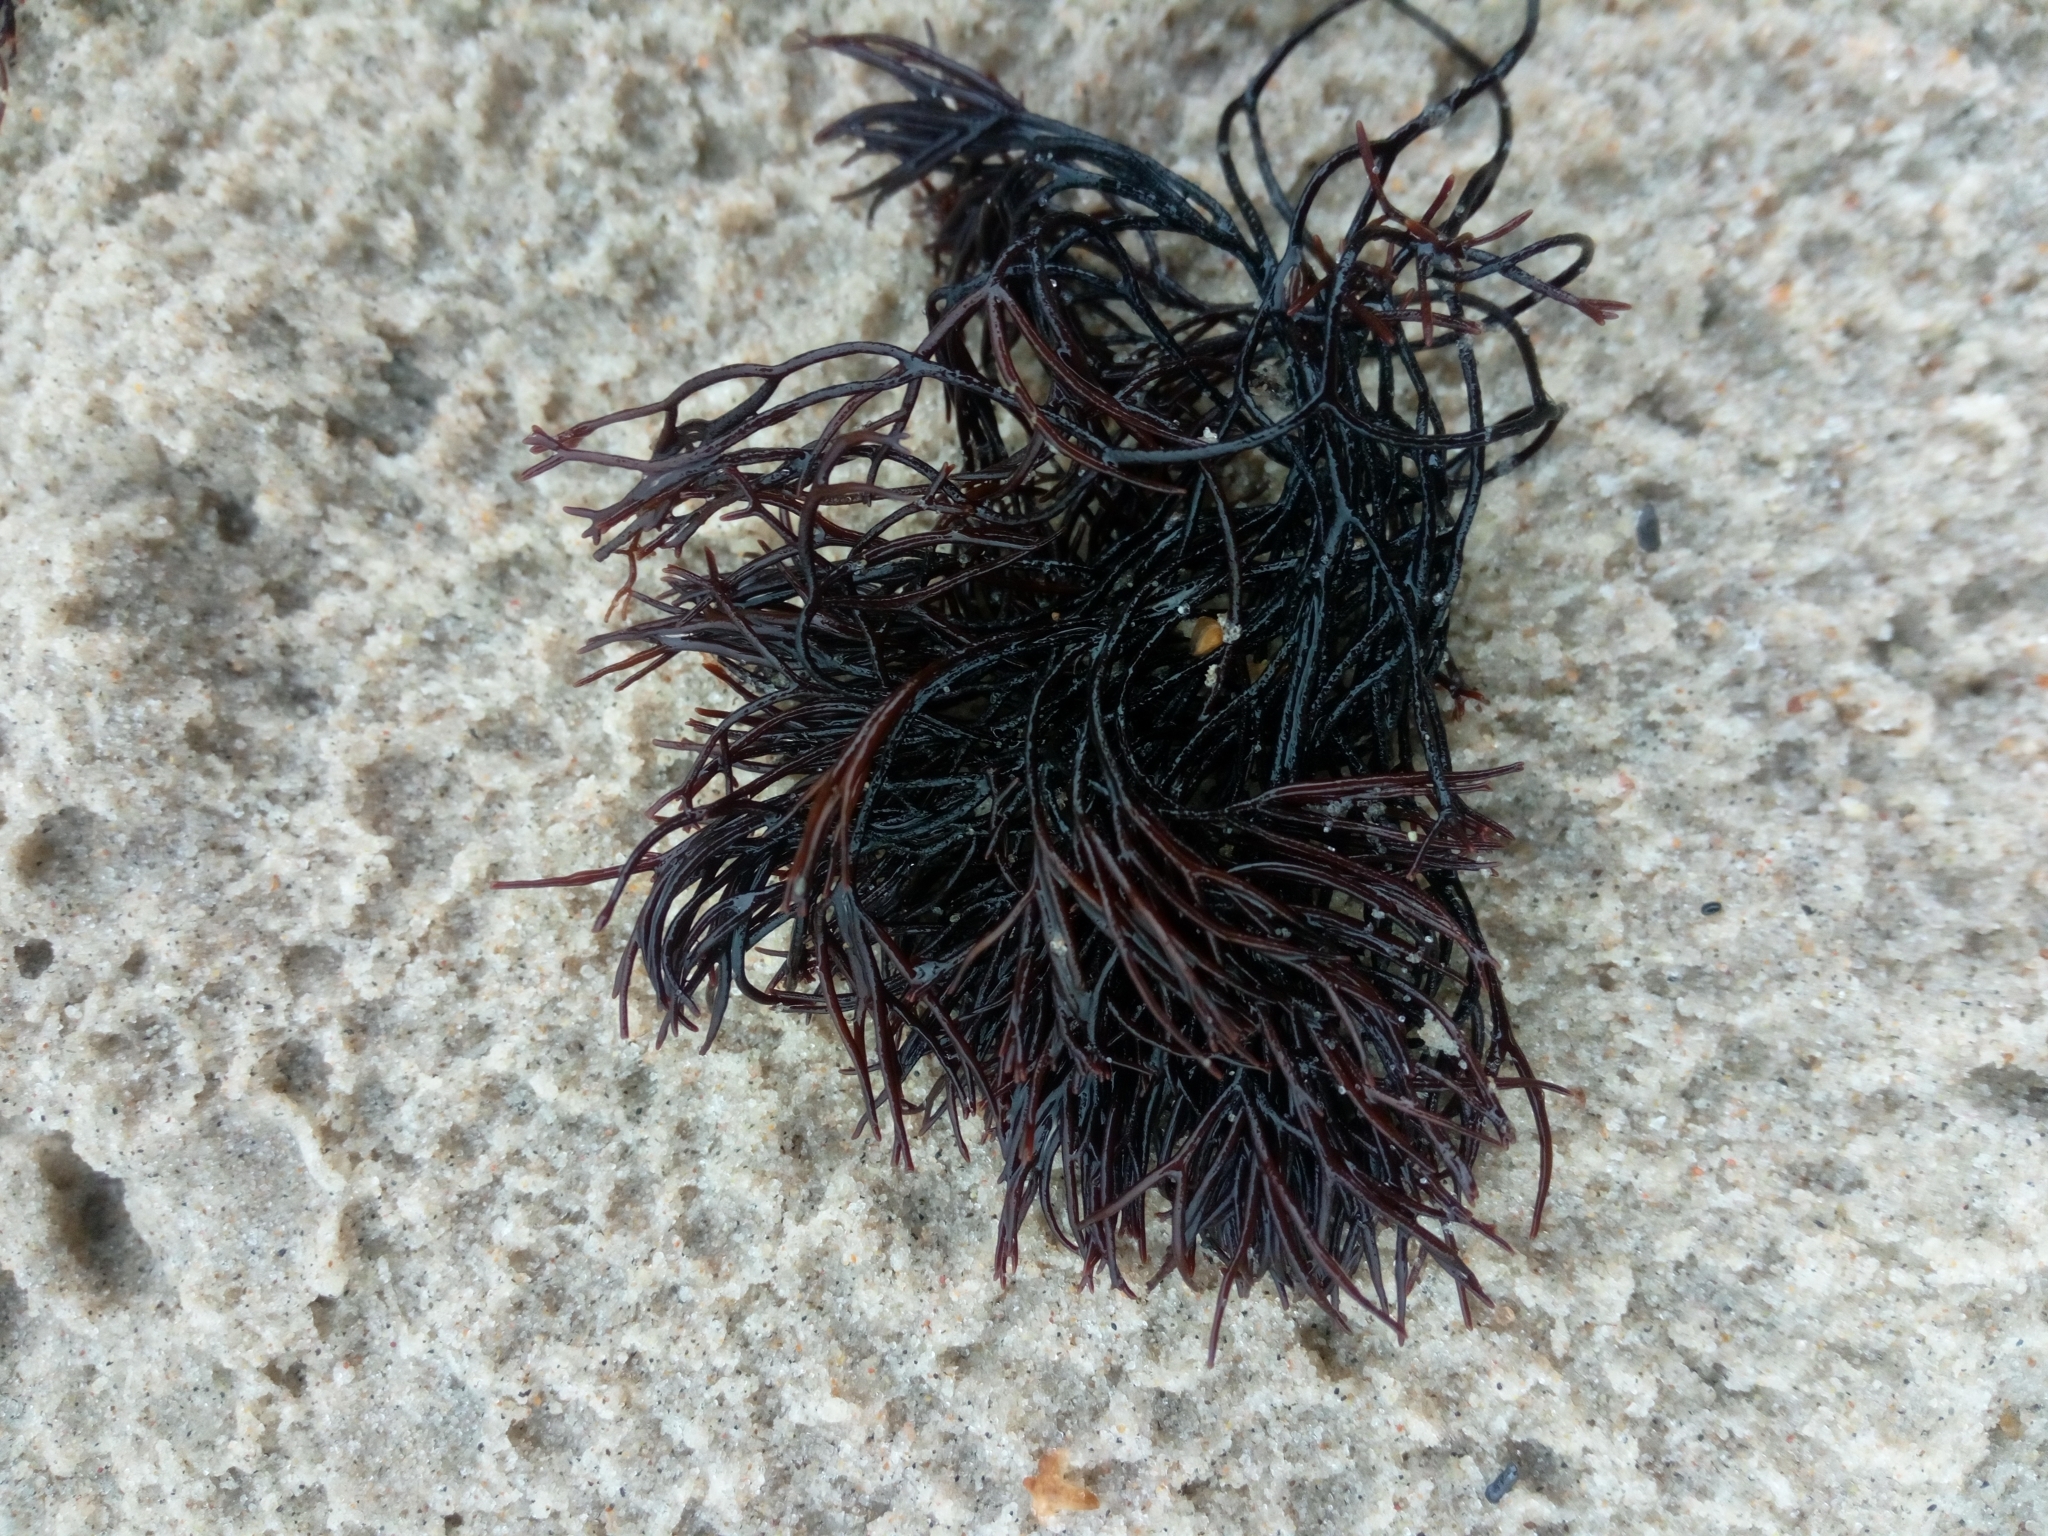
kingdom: Plantae
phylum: Rhodophyta
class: Florideophyceae
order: Gigartinales
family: Furcellariaceae
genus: Furcellaria
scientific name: Furcellaria lumbricalis
